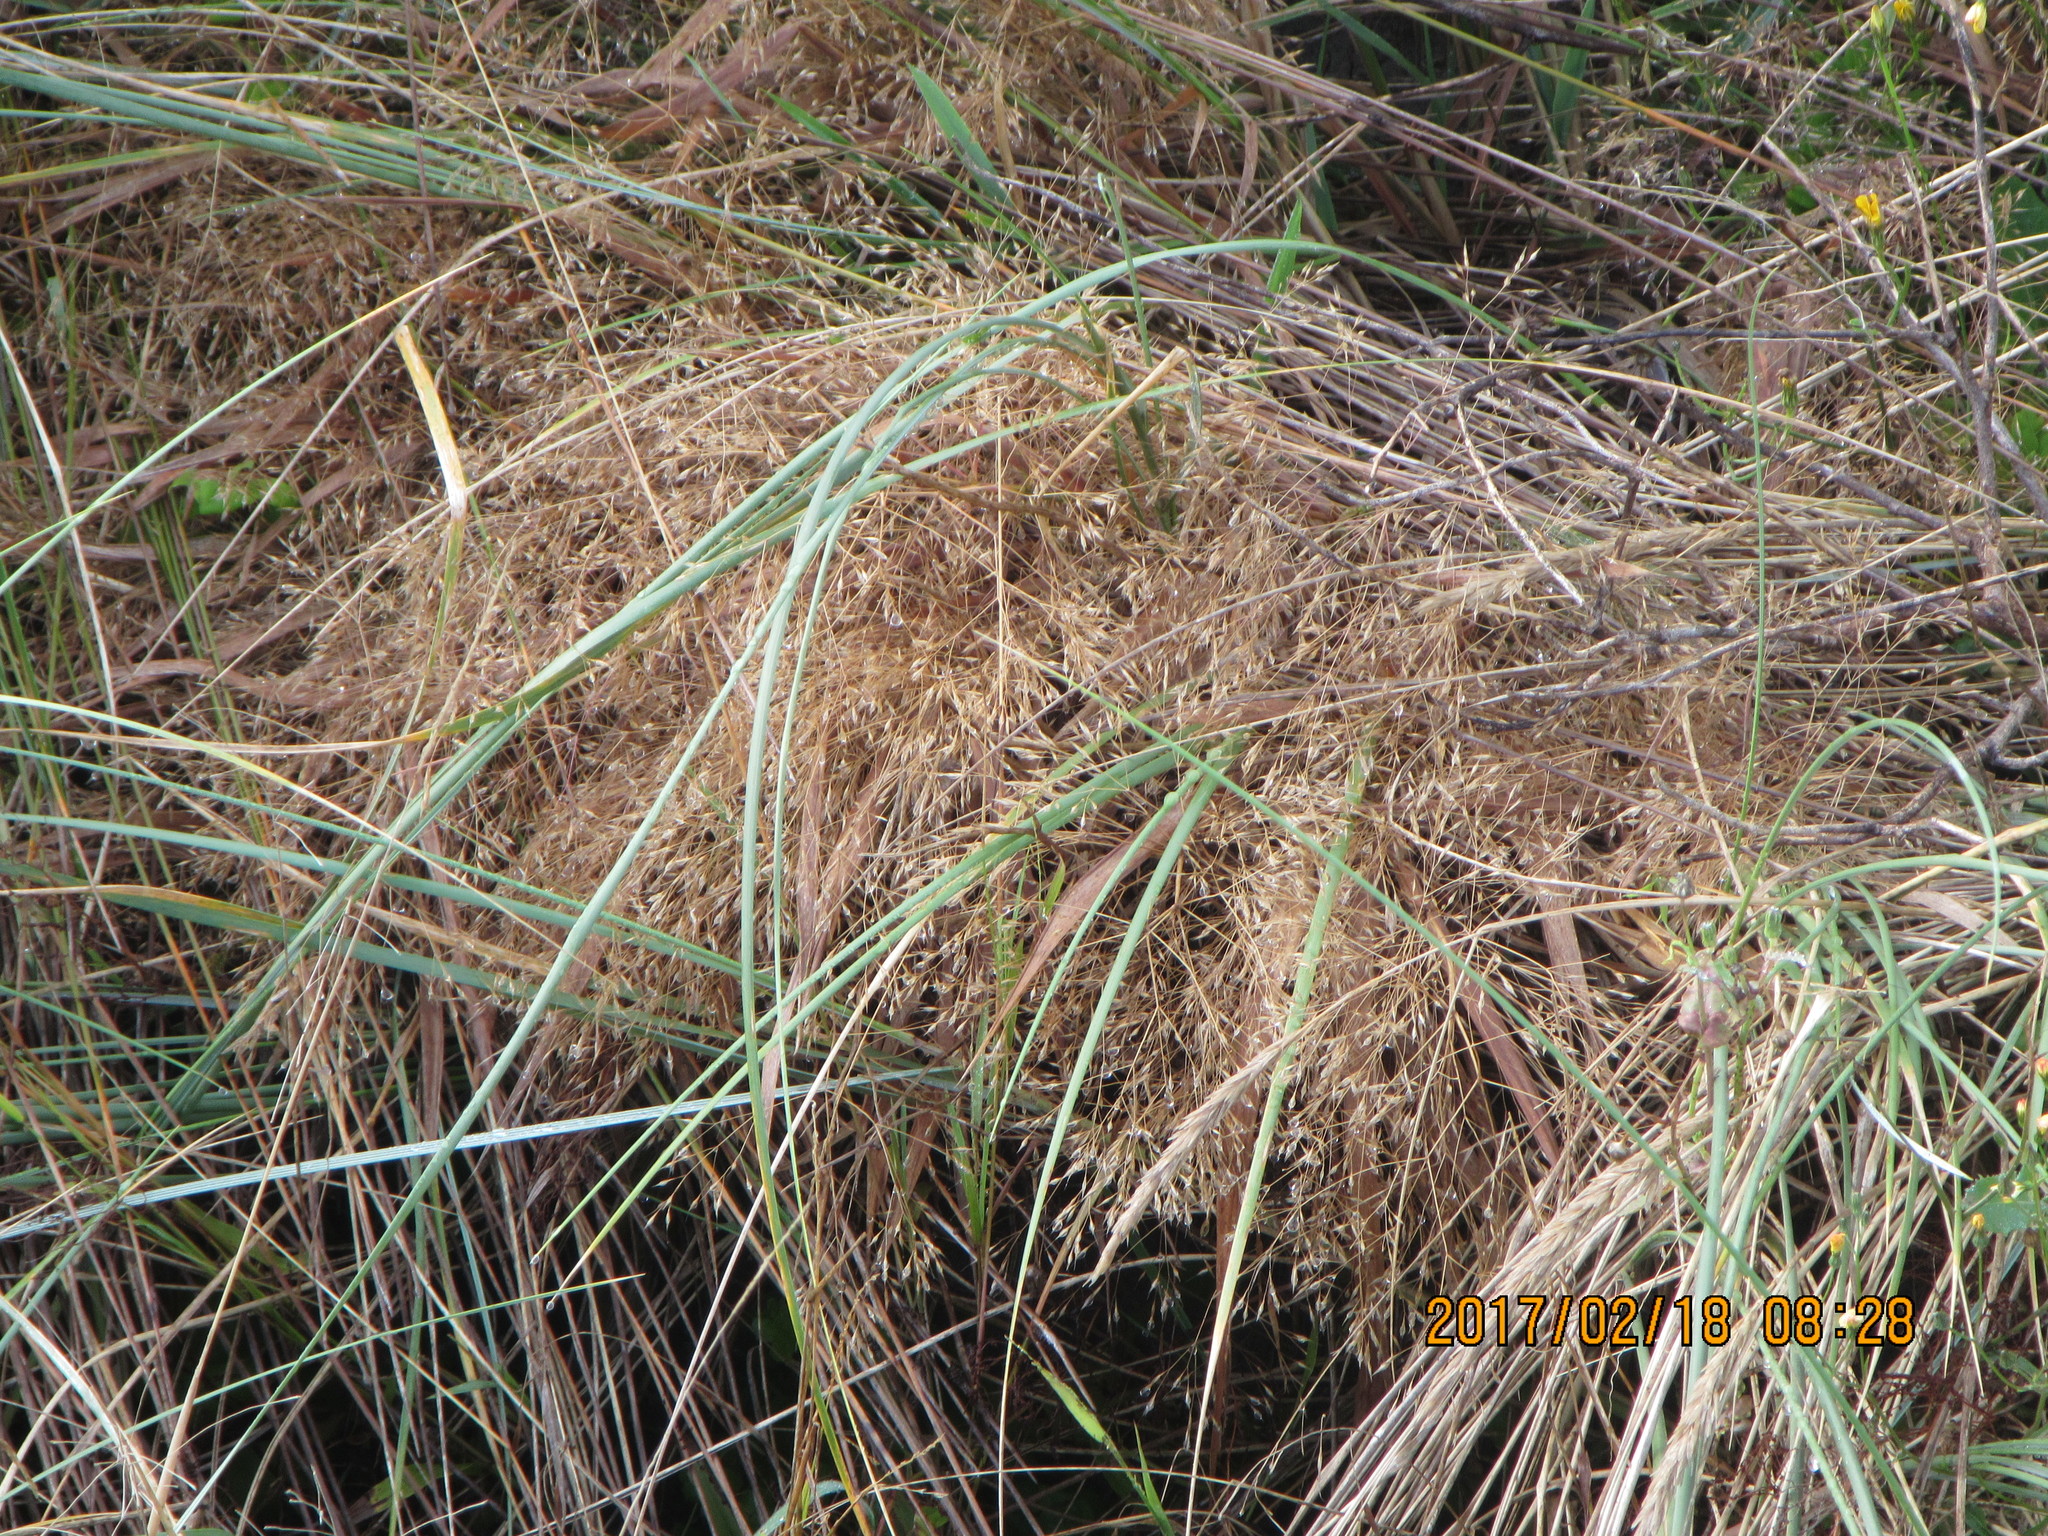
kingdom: Plantae
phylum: Tracheophyta
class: Liliopsida
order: Poales
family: Poaceae
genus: Lachnagrostis
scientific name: Lachnagrostis billardierei
